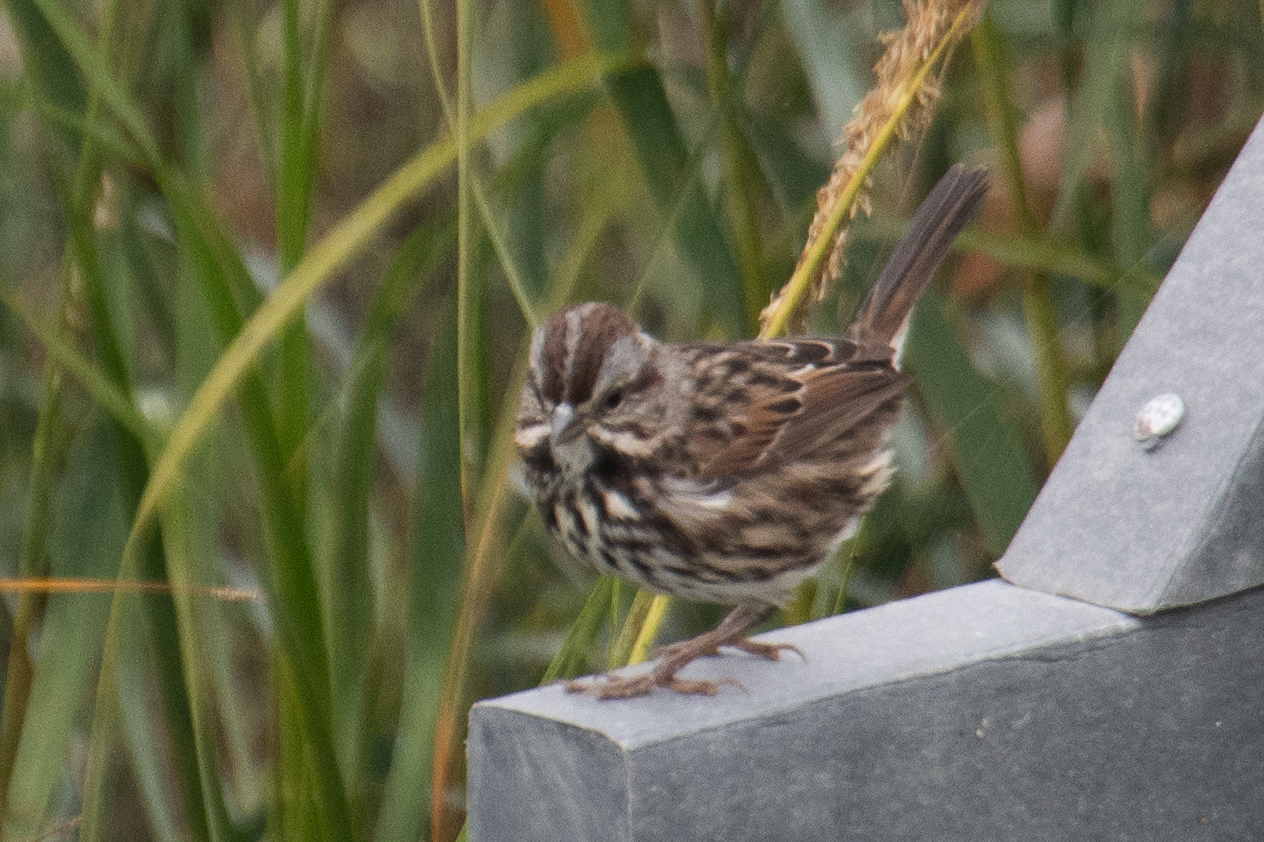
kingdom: Animalia
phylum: Chordata
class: Aves
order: Passeriformes
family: Passerellidae
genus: Melospiza
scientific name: Melospiza melodia
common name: Song sparrow
